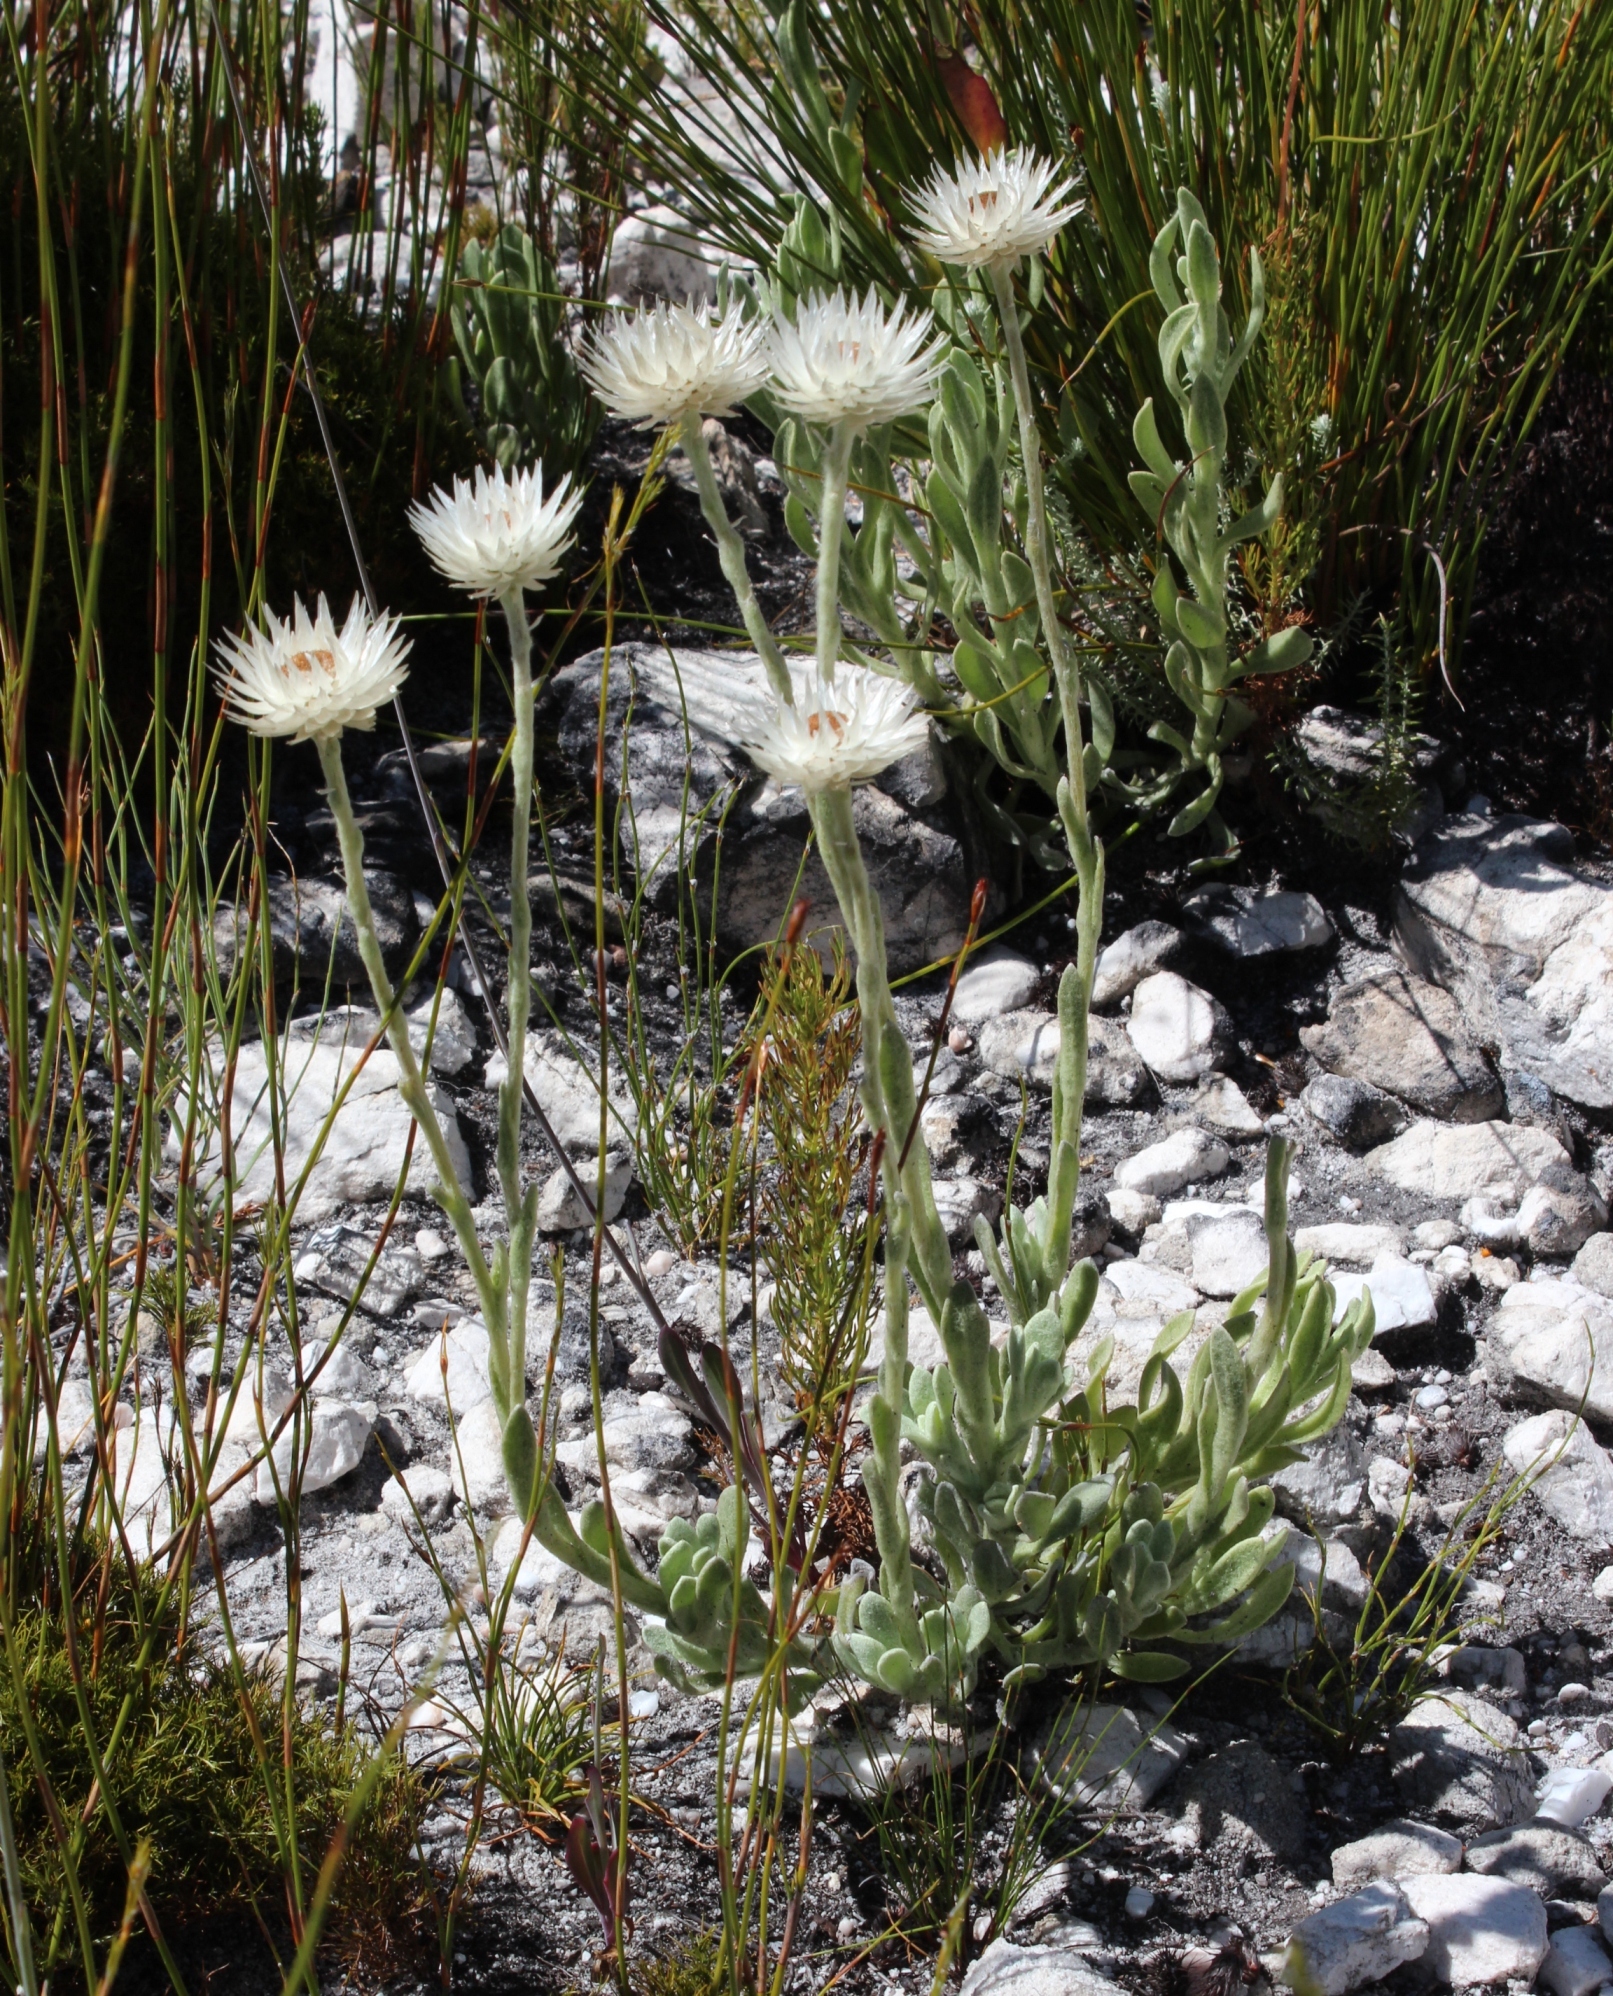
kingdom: Plantae
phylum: Tracheophyta
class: Magnoliopsida
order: Asterales
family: Asteraceae
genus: Syncarpha
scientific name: Syncarpha vestita
